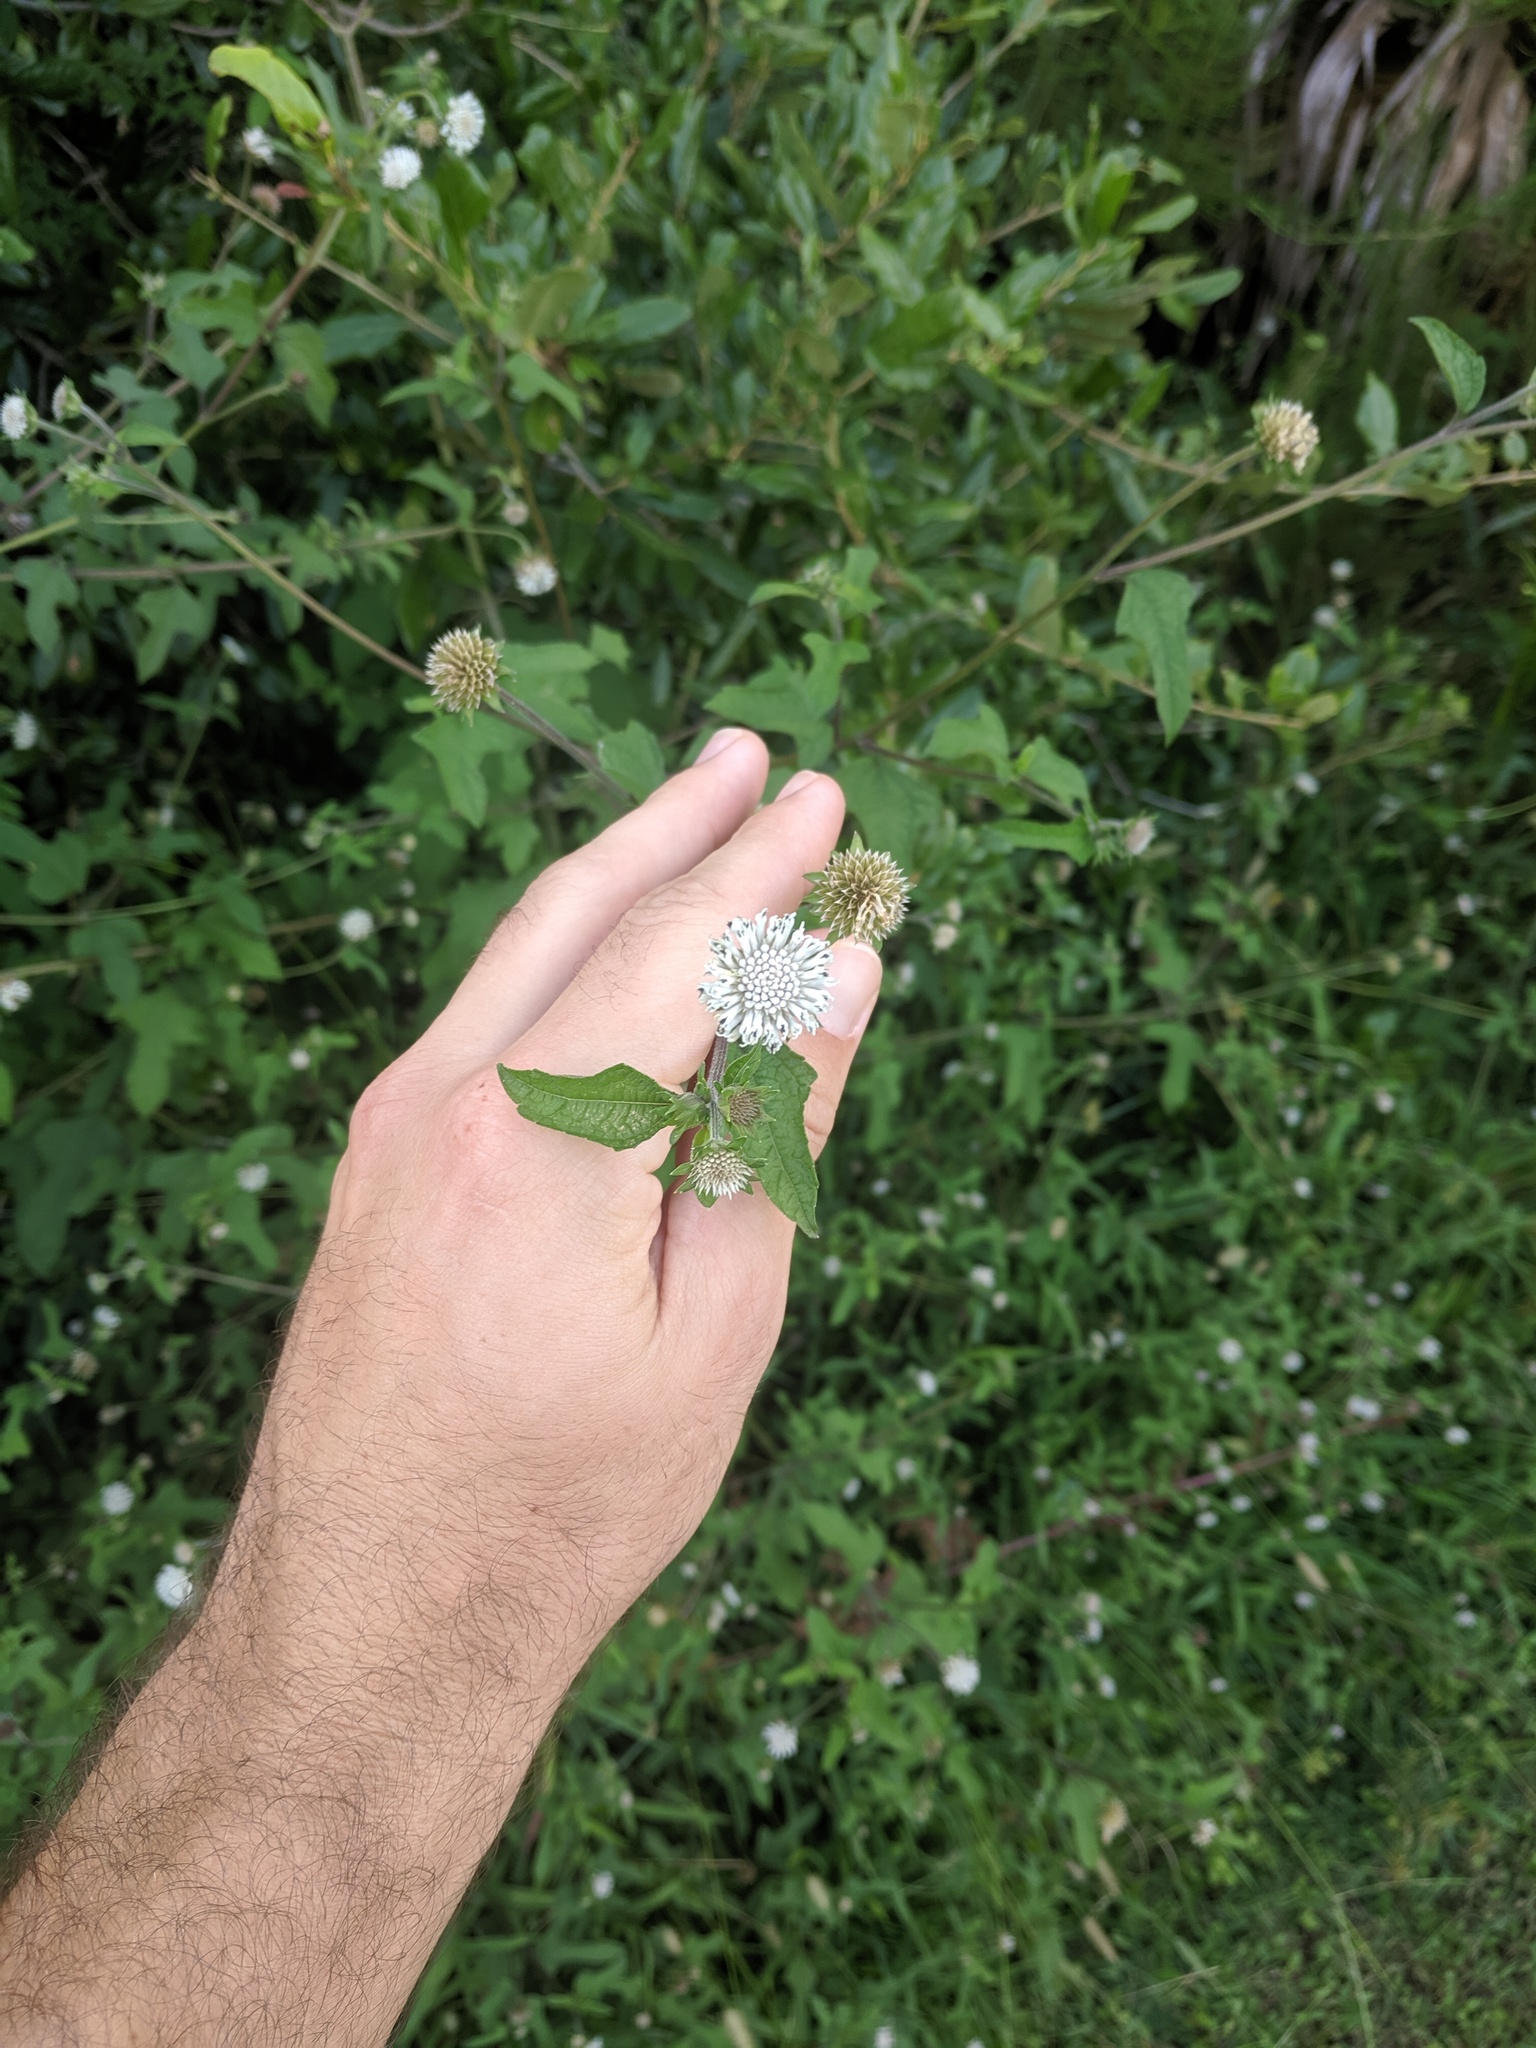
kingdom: Plantae
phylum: Tracheophyta
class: Magnoliopsida
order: Asterales
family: Asteraceae
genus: Melanthera
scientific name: Melanthera nivea
